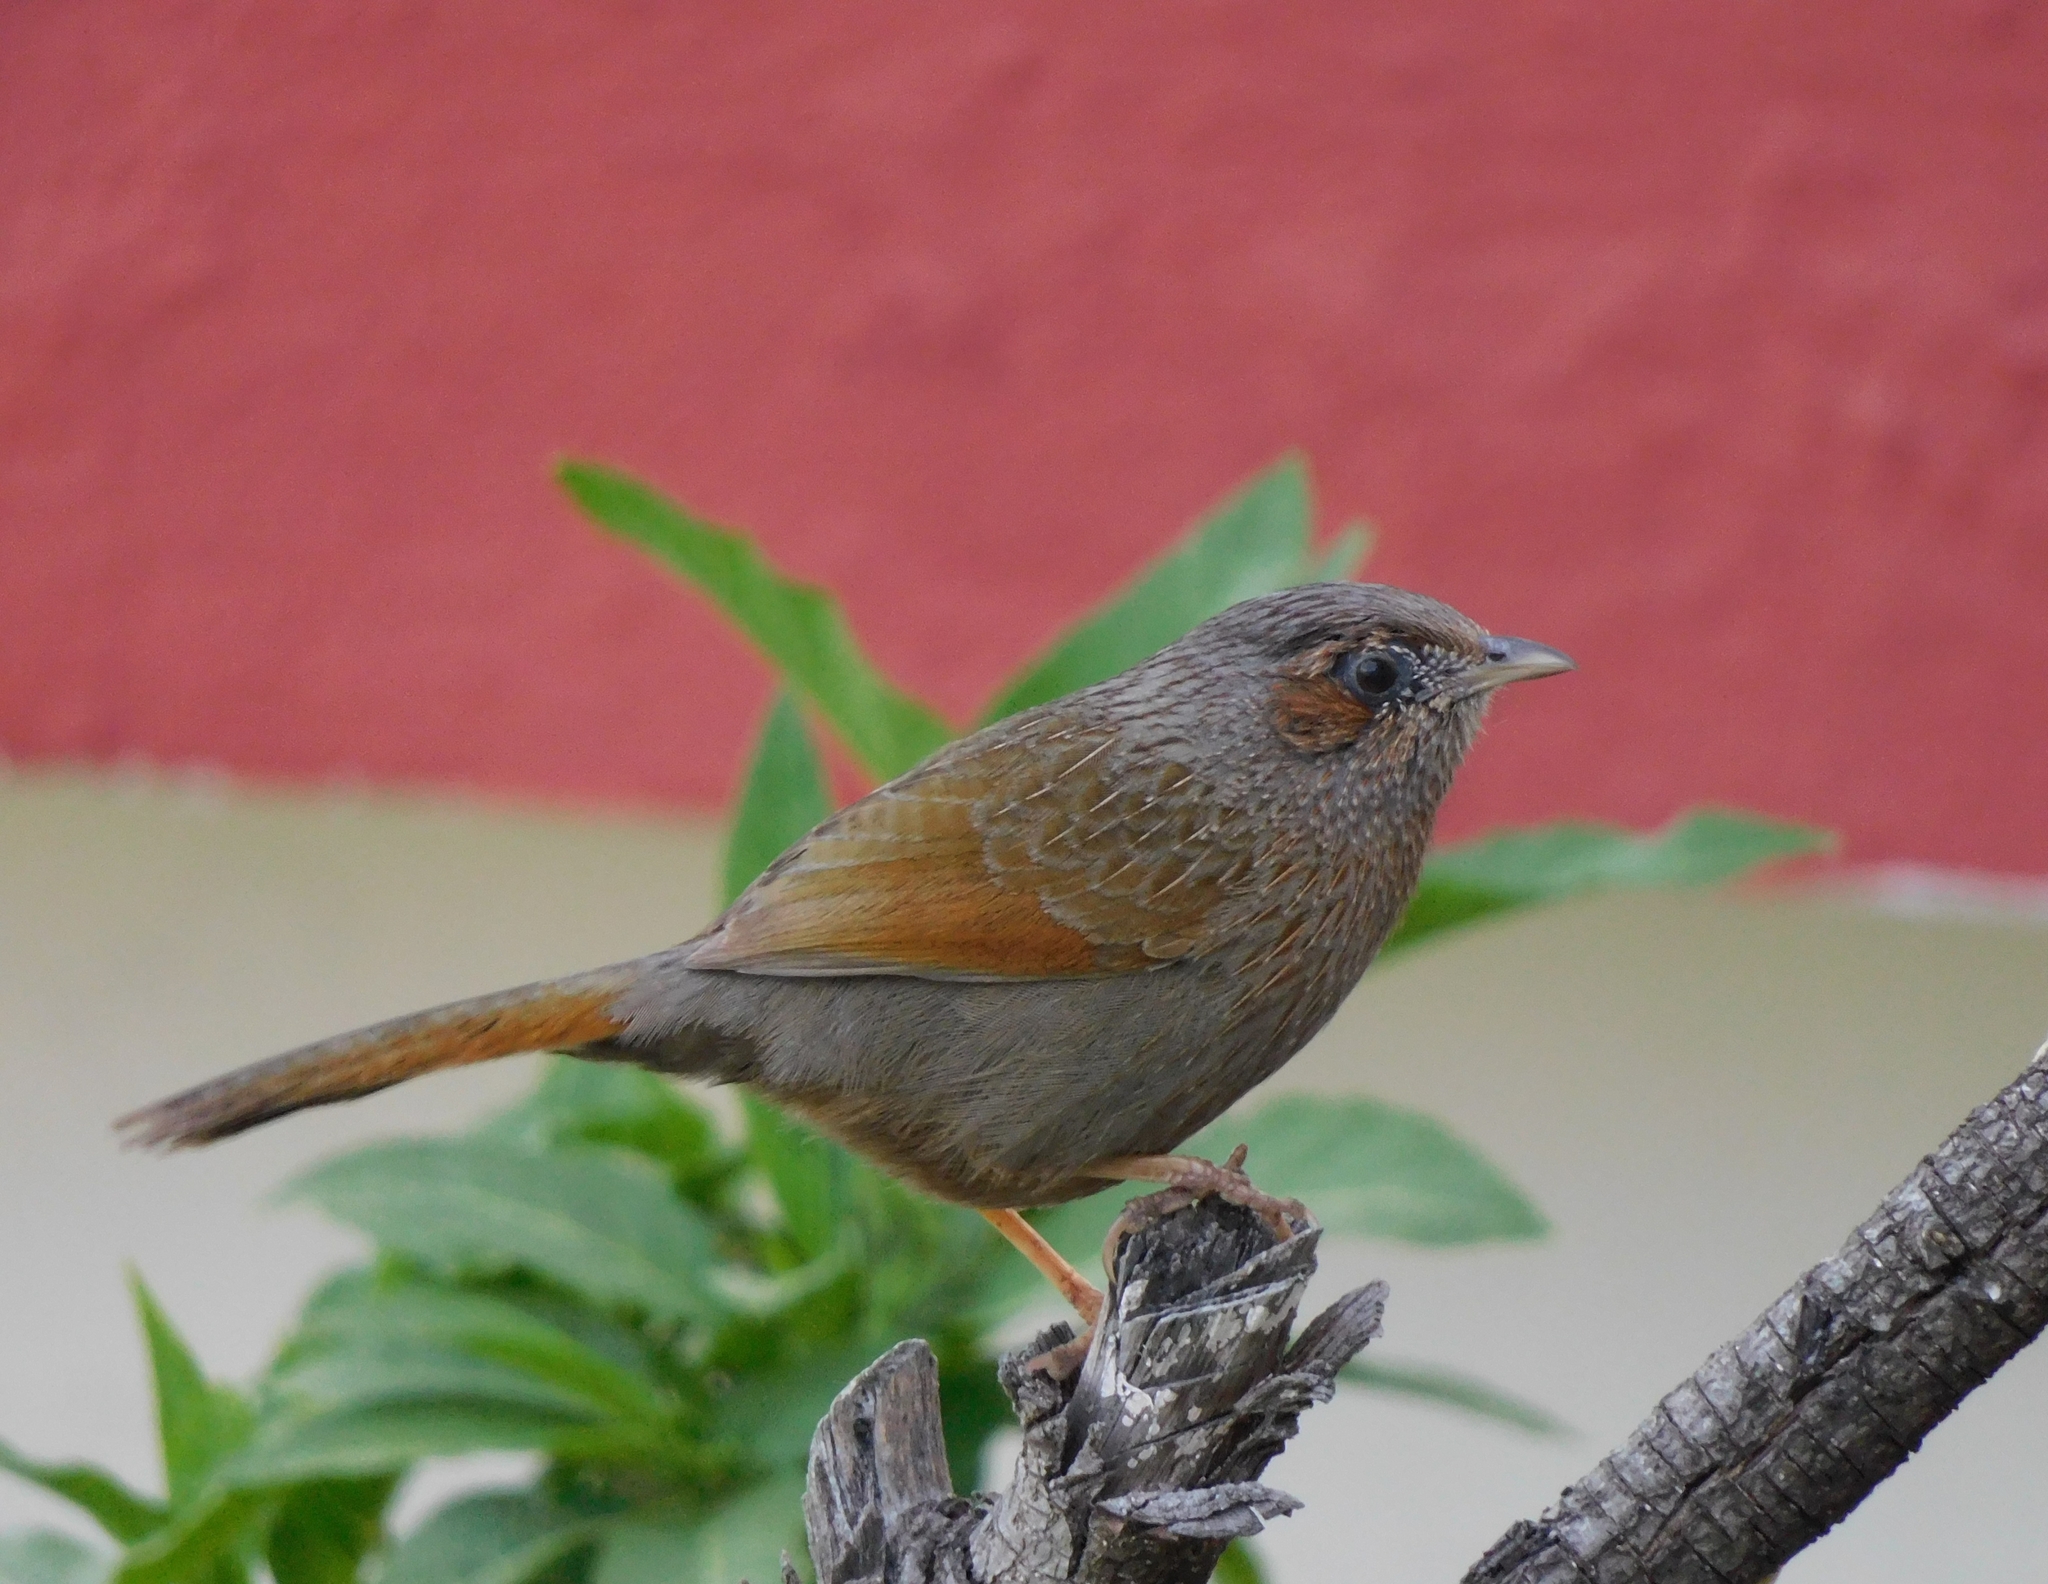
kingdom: Animalia
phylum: Chordata
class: Aves
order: Passeriformes
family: Leiothrichidae
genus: Trochalopteron
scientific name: Trochalopteron lineatum
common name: Streaked laughingthrush
